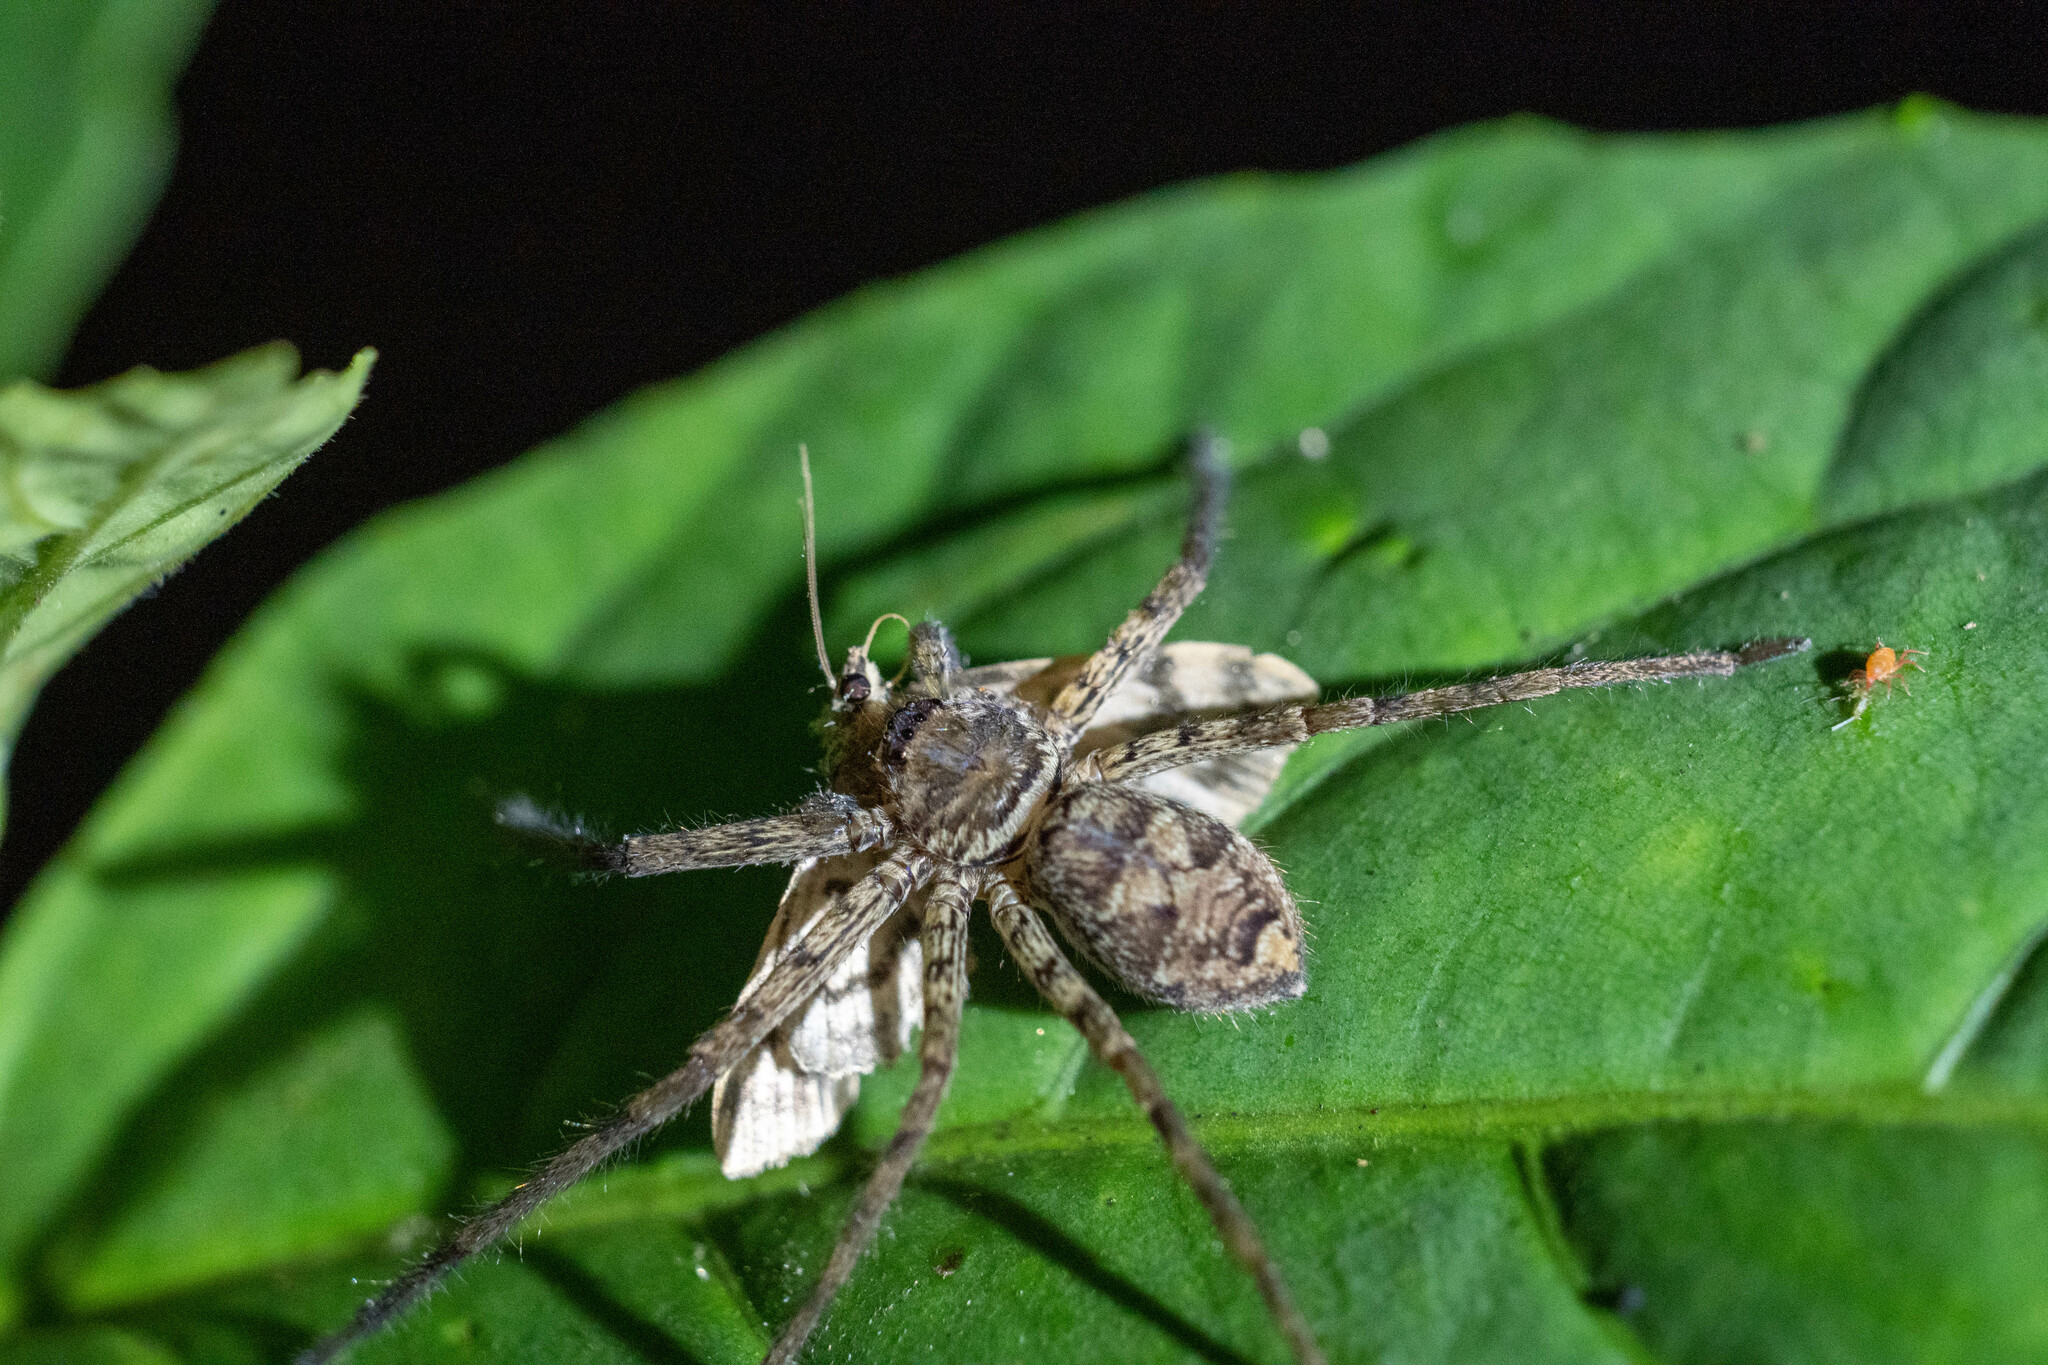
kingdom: Animalia
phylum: Arthropoda
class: Arachnida
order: Araneae
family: Sparassidae
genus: Heteropoda
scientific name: Heteropoda venatoria
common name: Huntsman spider
